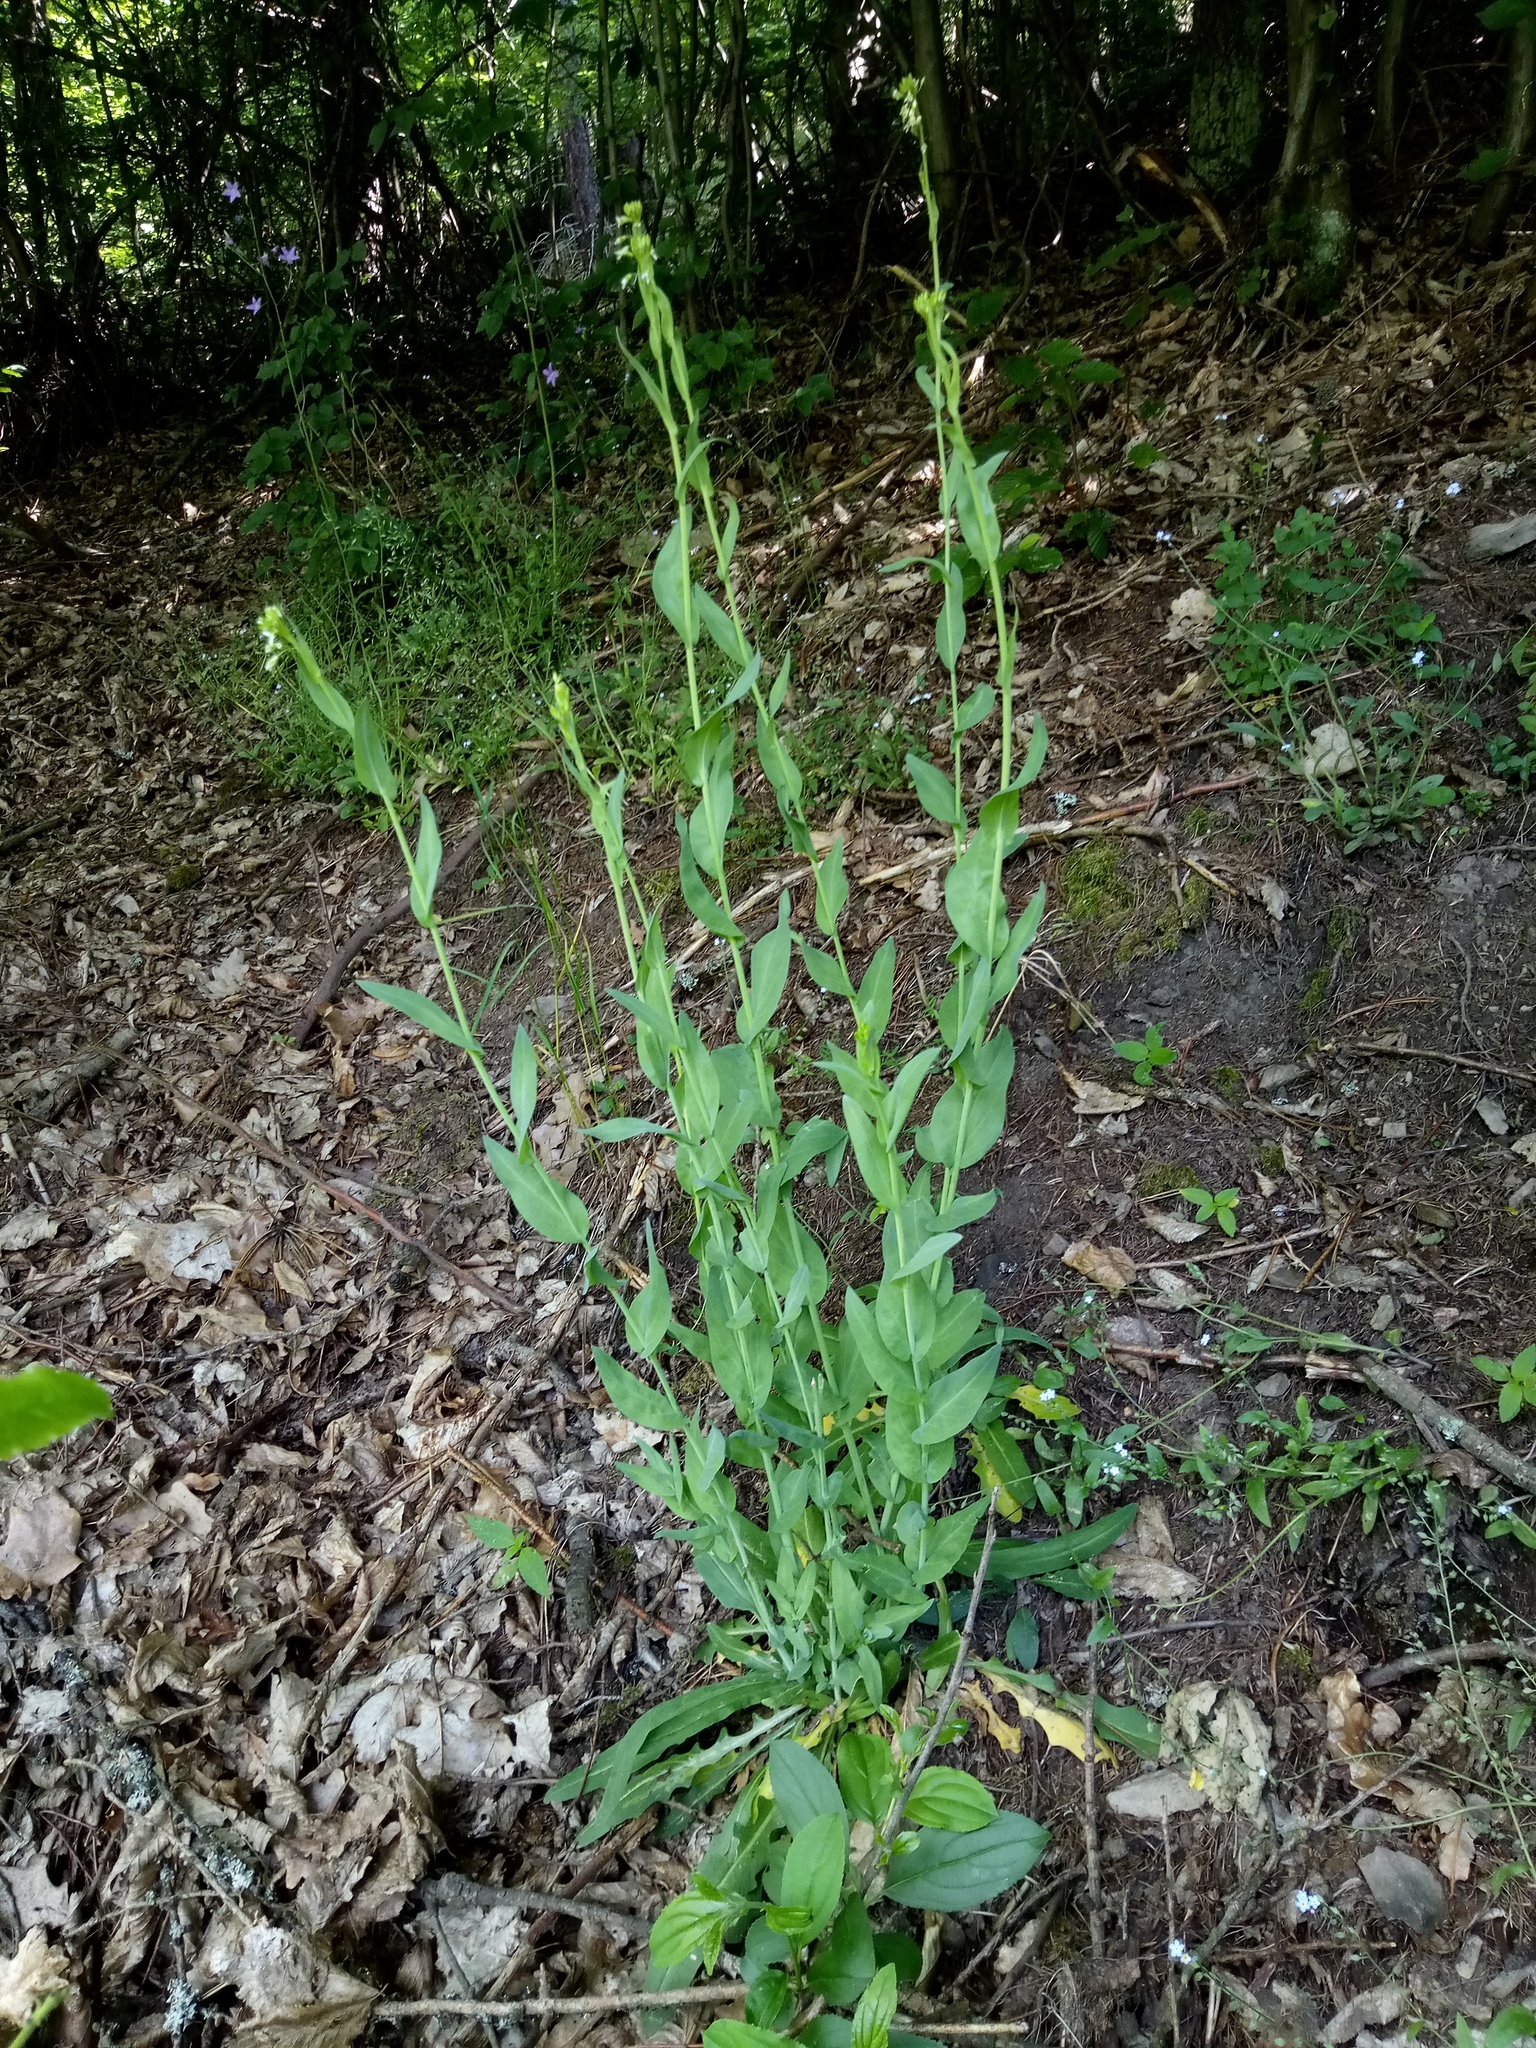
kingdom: Plantae
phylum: Tracheophyta
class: Magnoliopsida
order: Brassicales
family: Brassicaceae
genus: Turritis
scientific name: Turritis glabra
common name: Tower rockcress
